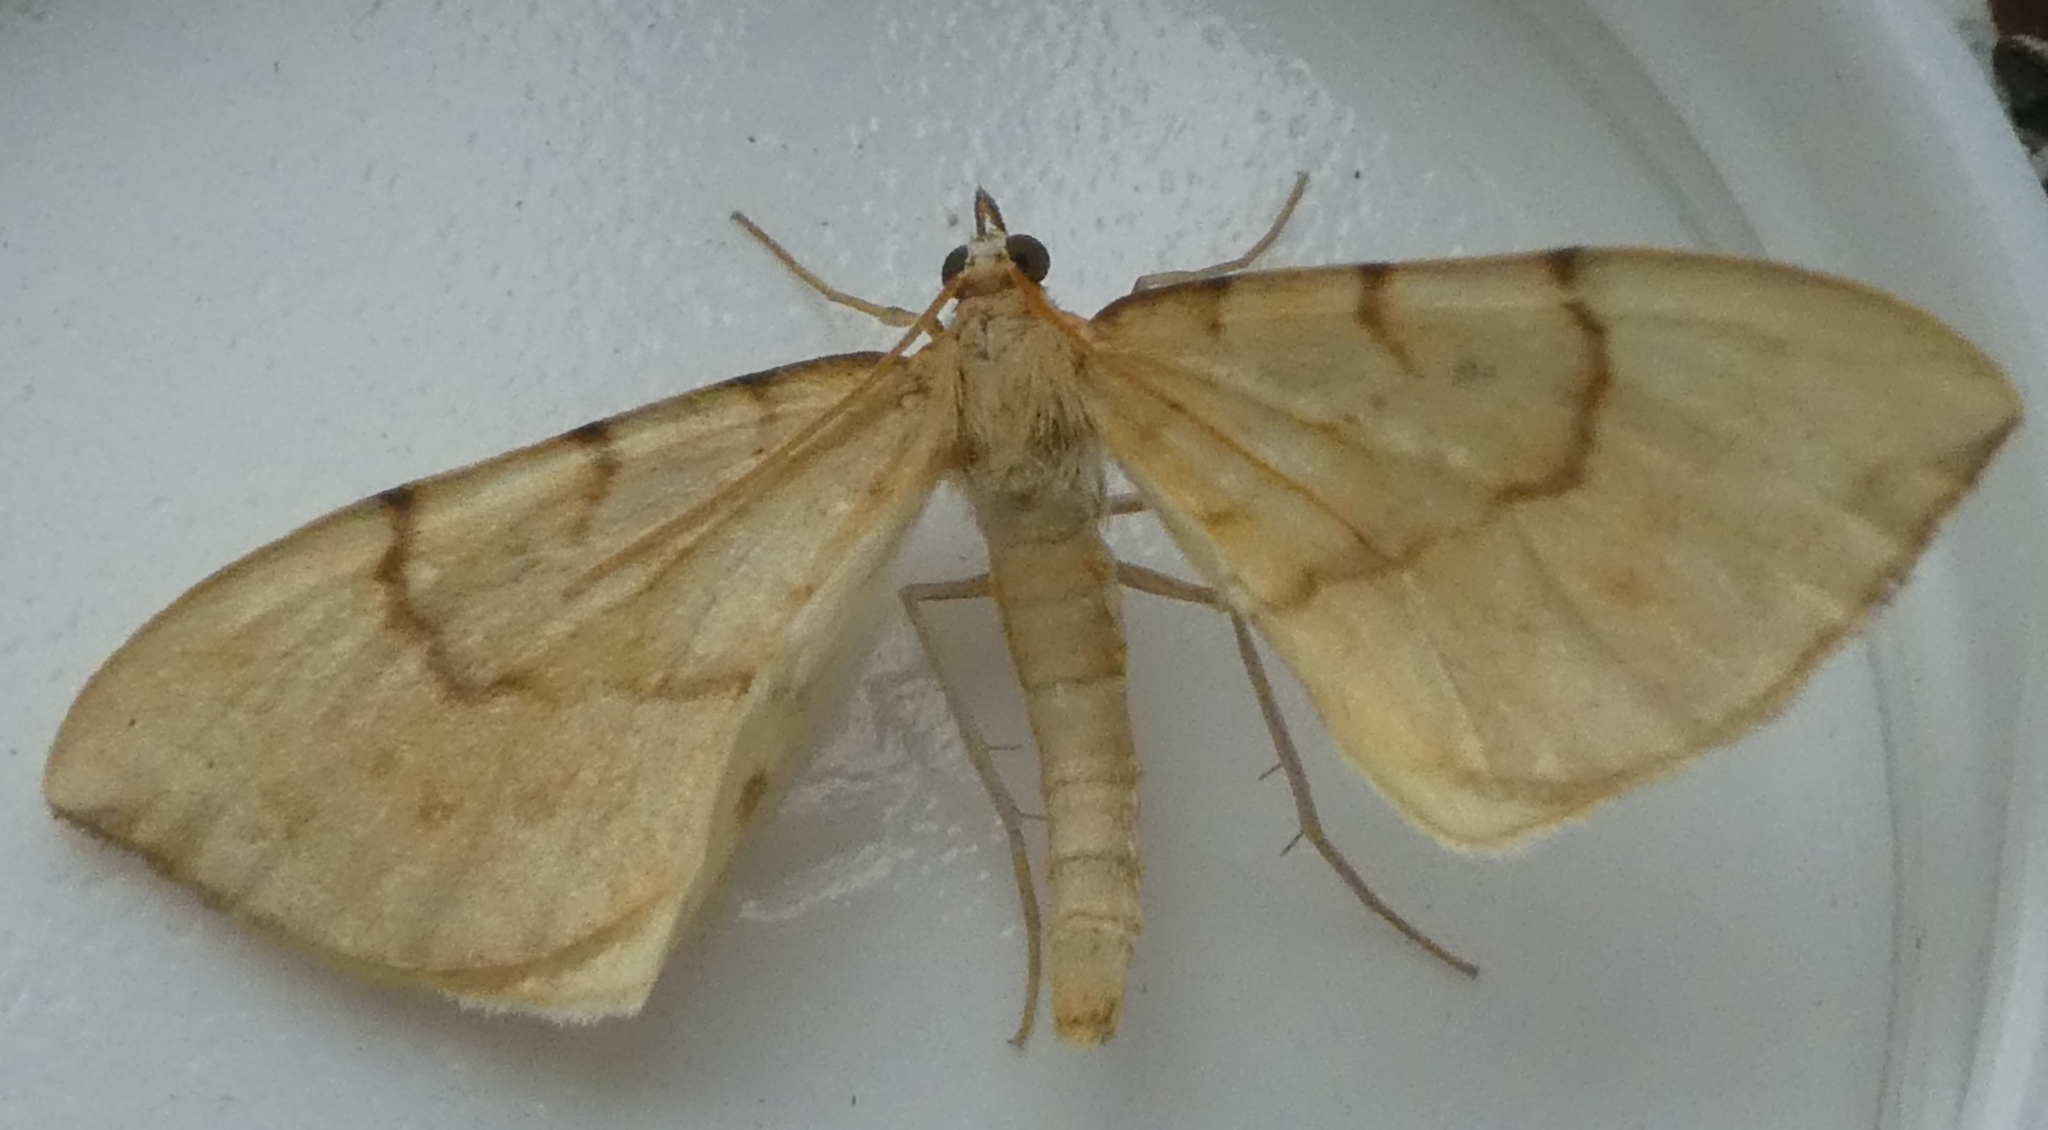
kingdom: Animalia
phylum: Arthropoda
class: Insecta
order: Lepidoptera
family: Geometridae
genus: Eulithis
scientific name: Eulithis pyraliata
